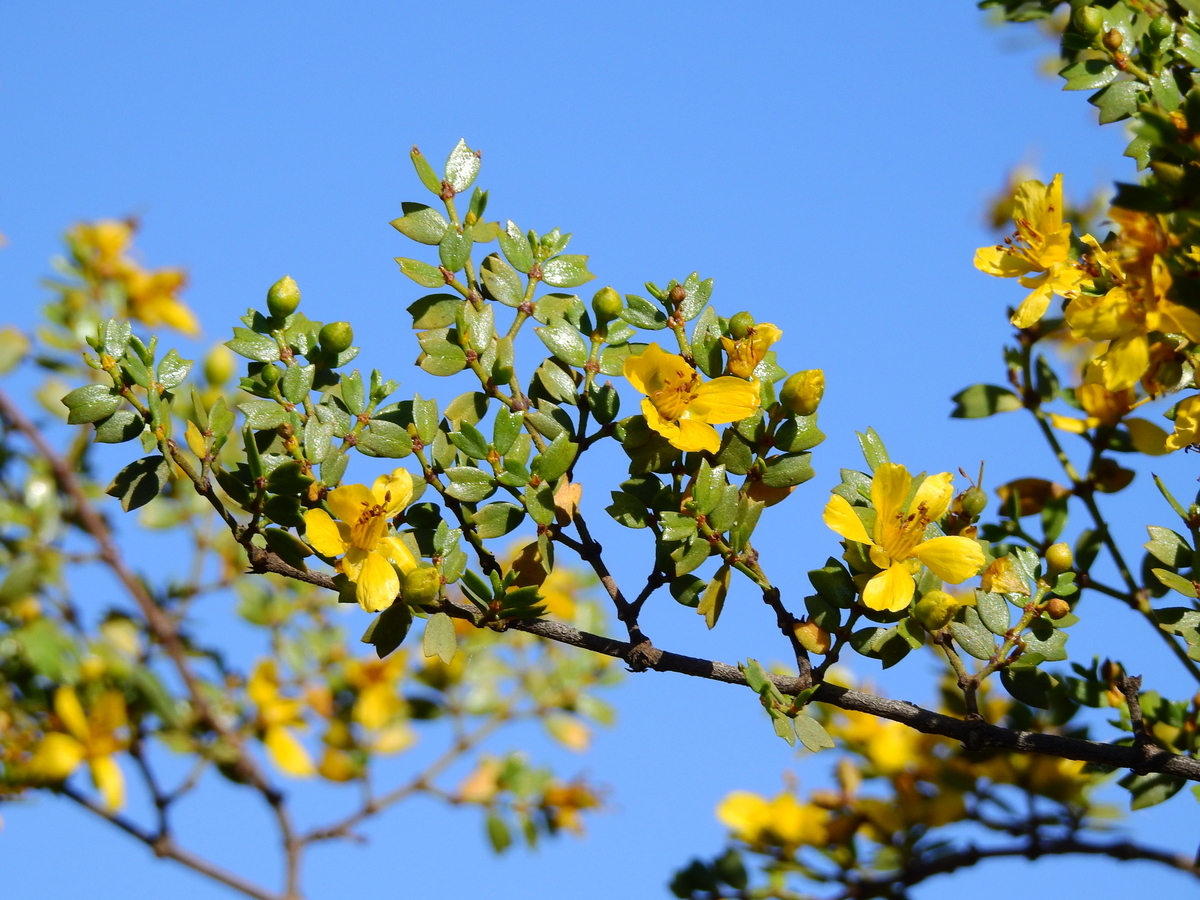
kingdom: Plantae
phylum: Tracheophyta
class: Magnoliopsida
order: Zygophyllales
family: Zygophyllaceae
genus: Larrea
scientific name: Larrea cuneifolia
